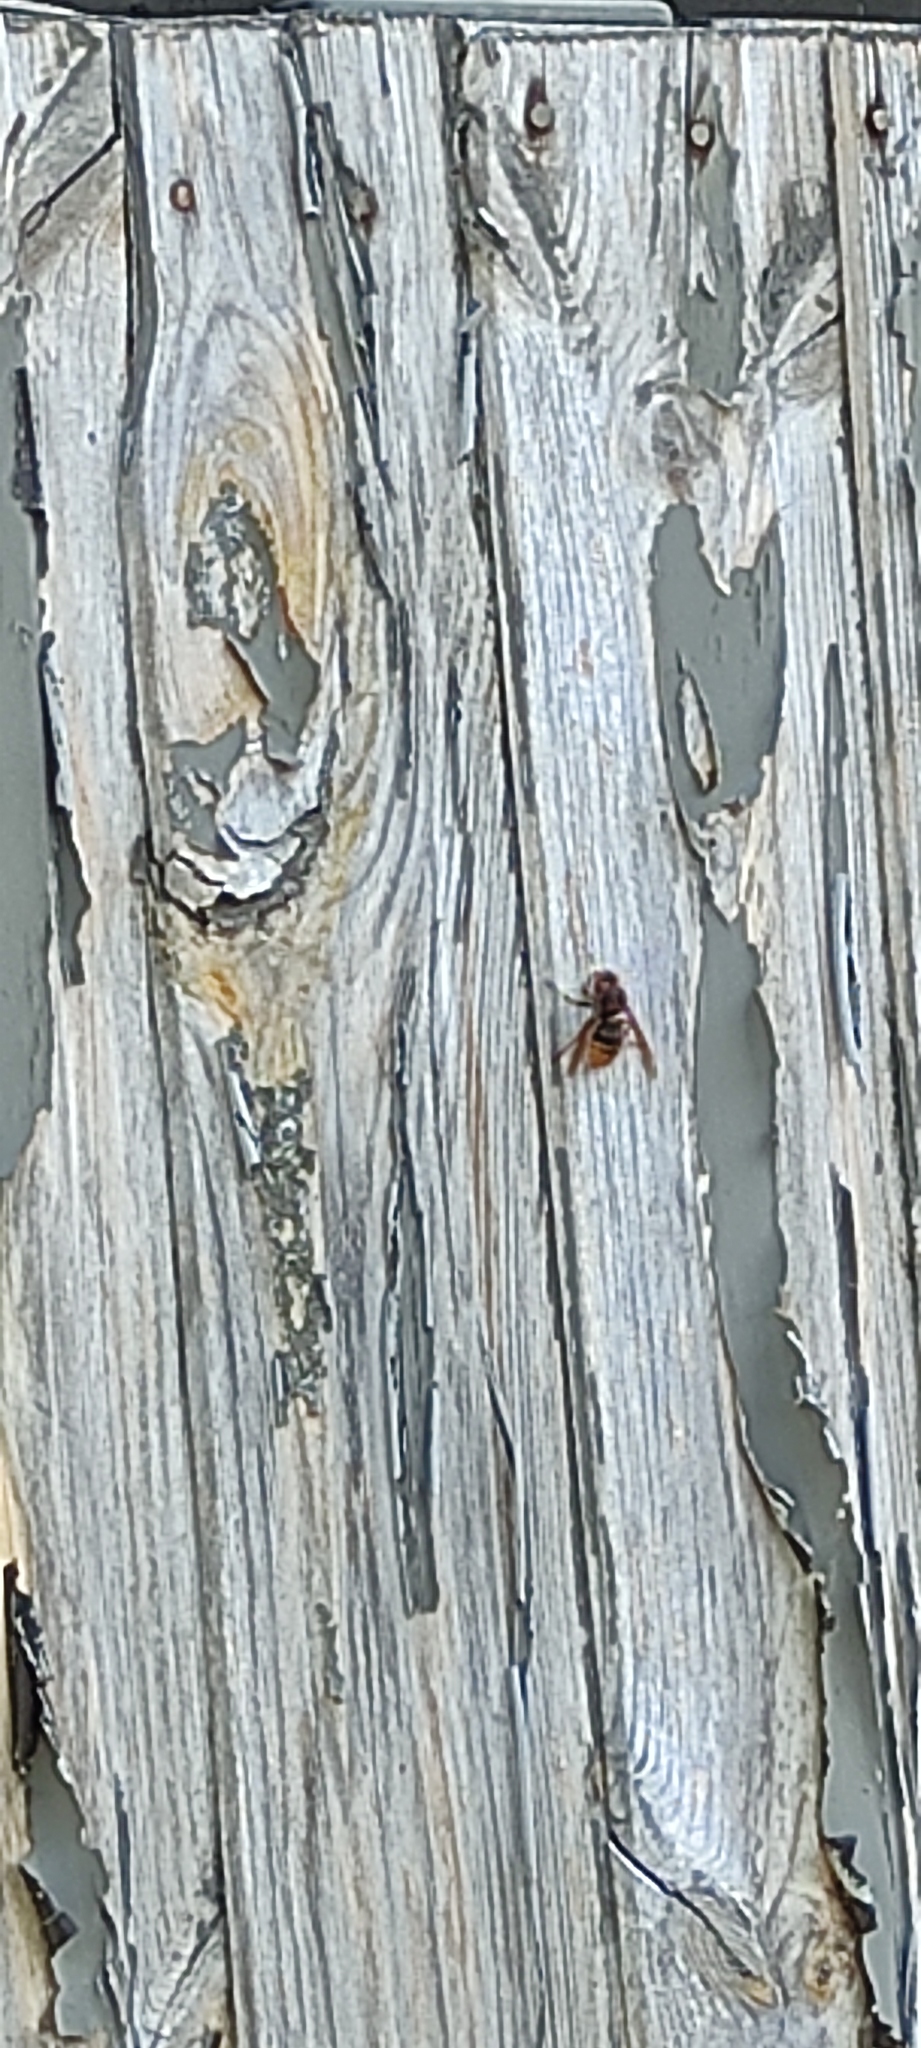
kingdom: Animalia
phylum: Arthropoda
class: Insecta
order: Hymenoptera
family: Vespidae
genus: Vespa
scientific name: Vespa crabro
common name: Hornet
